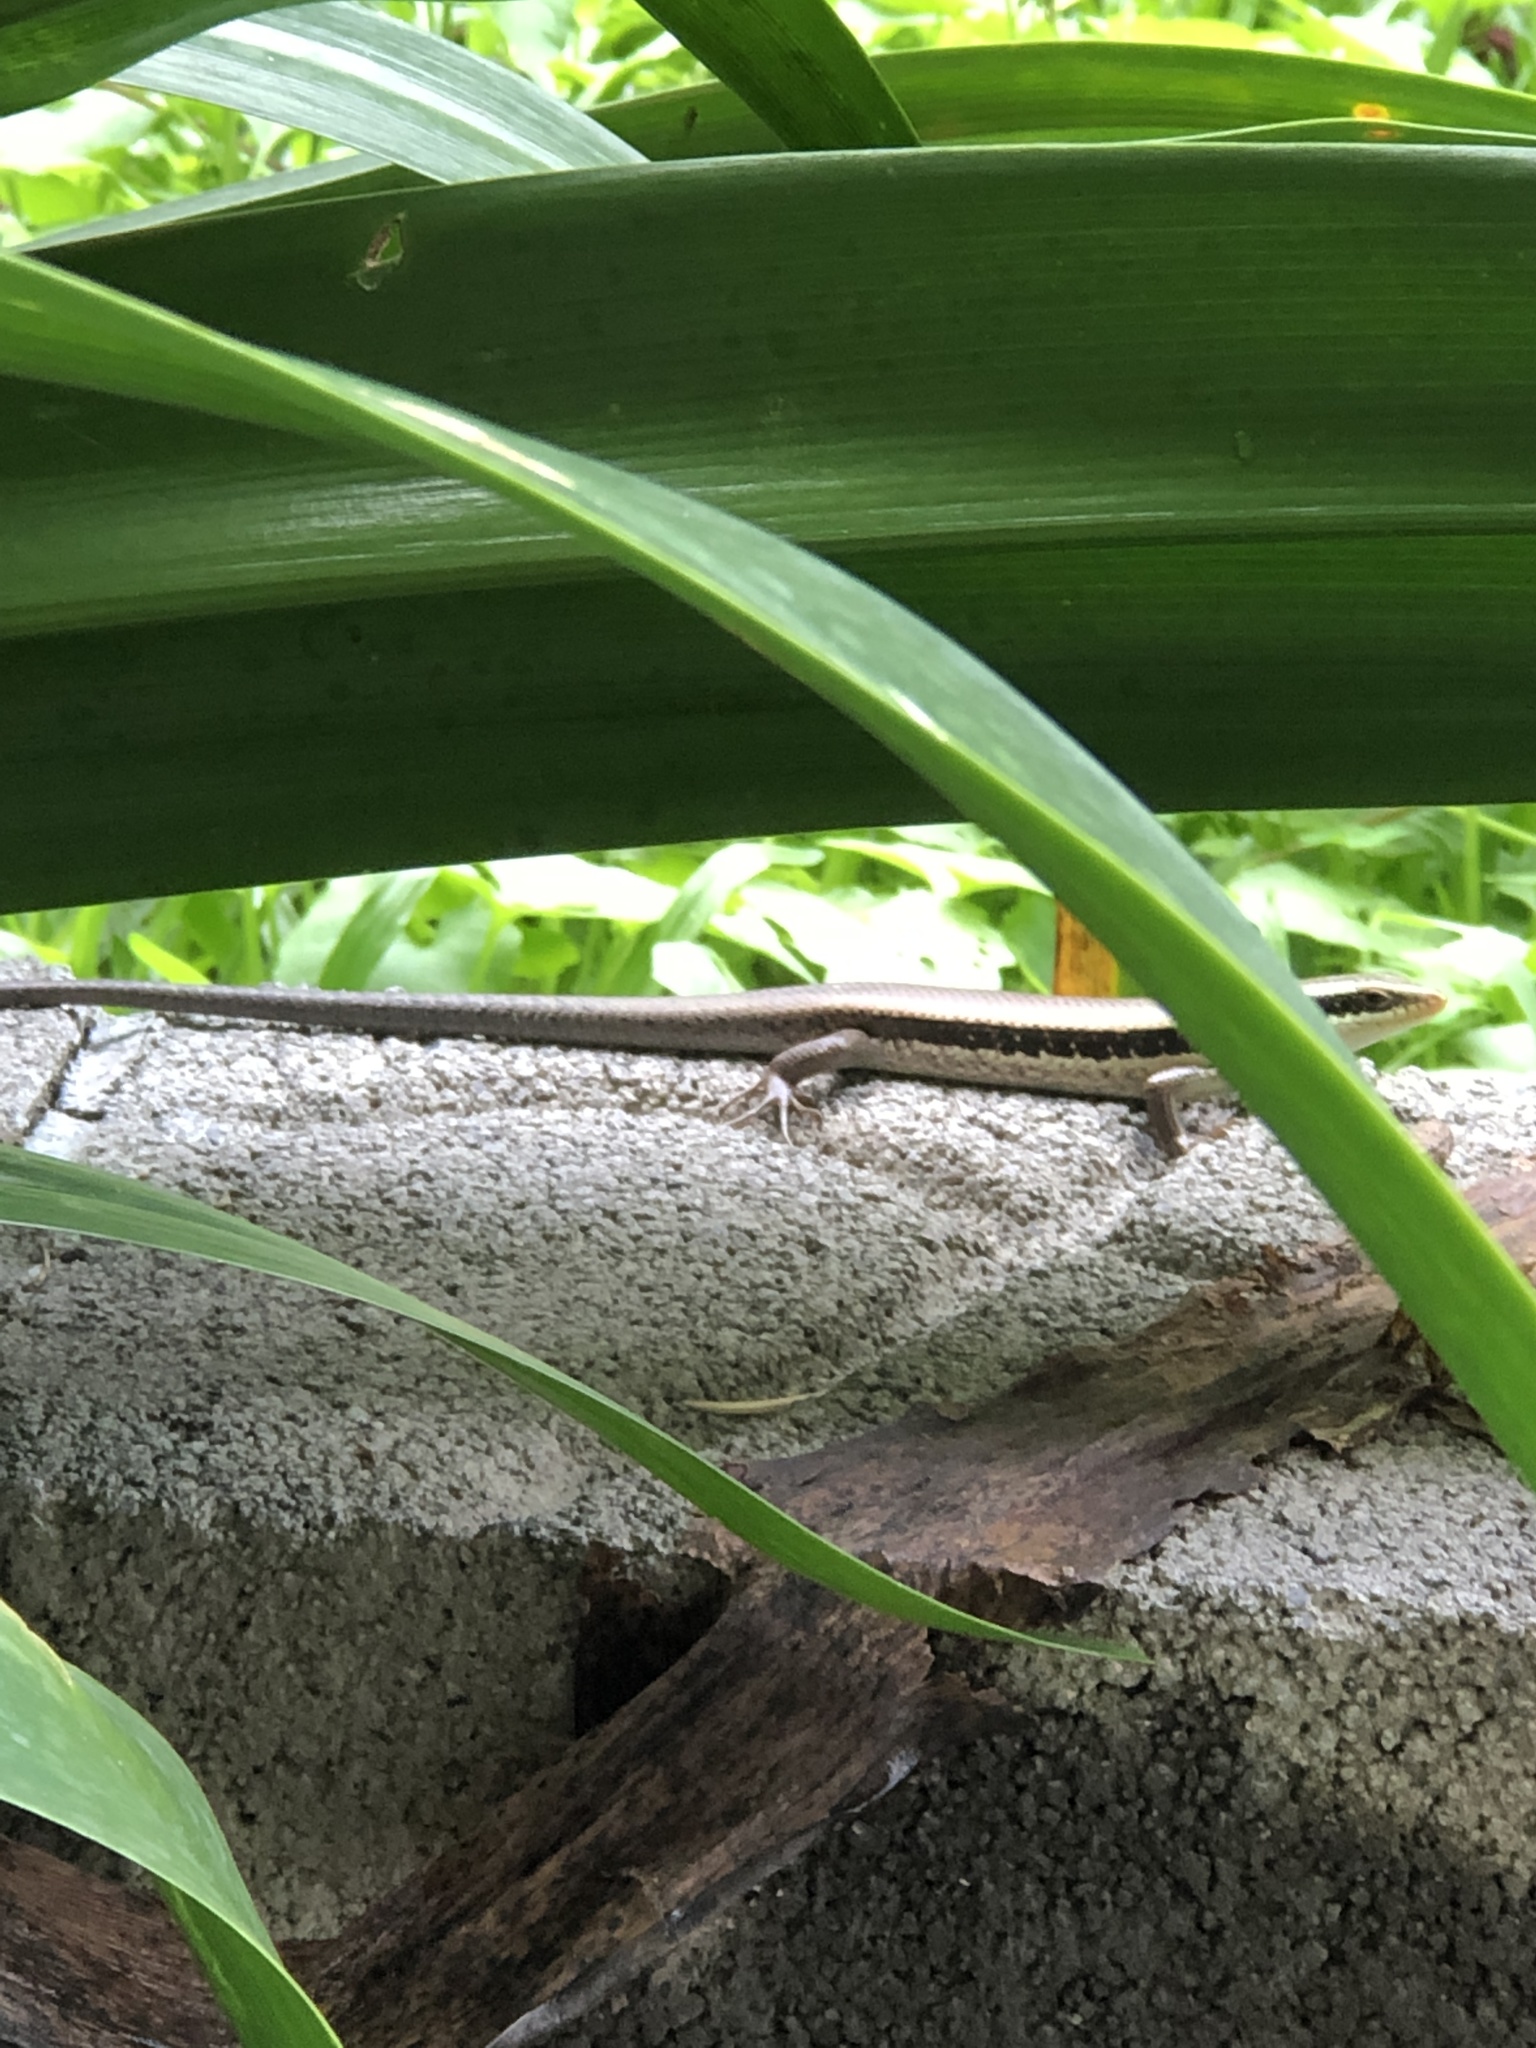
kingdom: Animalia
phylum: Chordata
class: Squamata
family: Scincidae
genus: Eutropis
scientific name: Eutropis longicaudata
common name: Long-tailed sun skink
